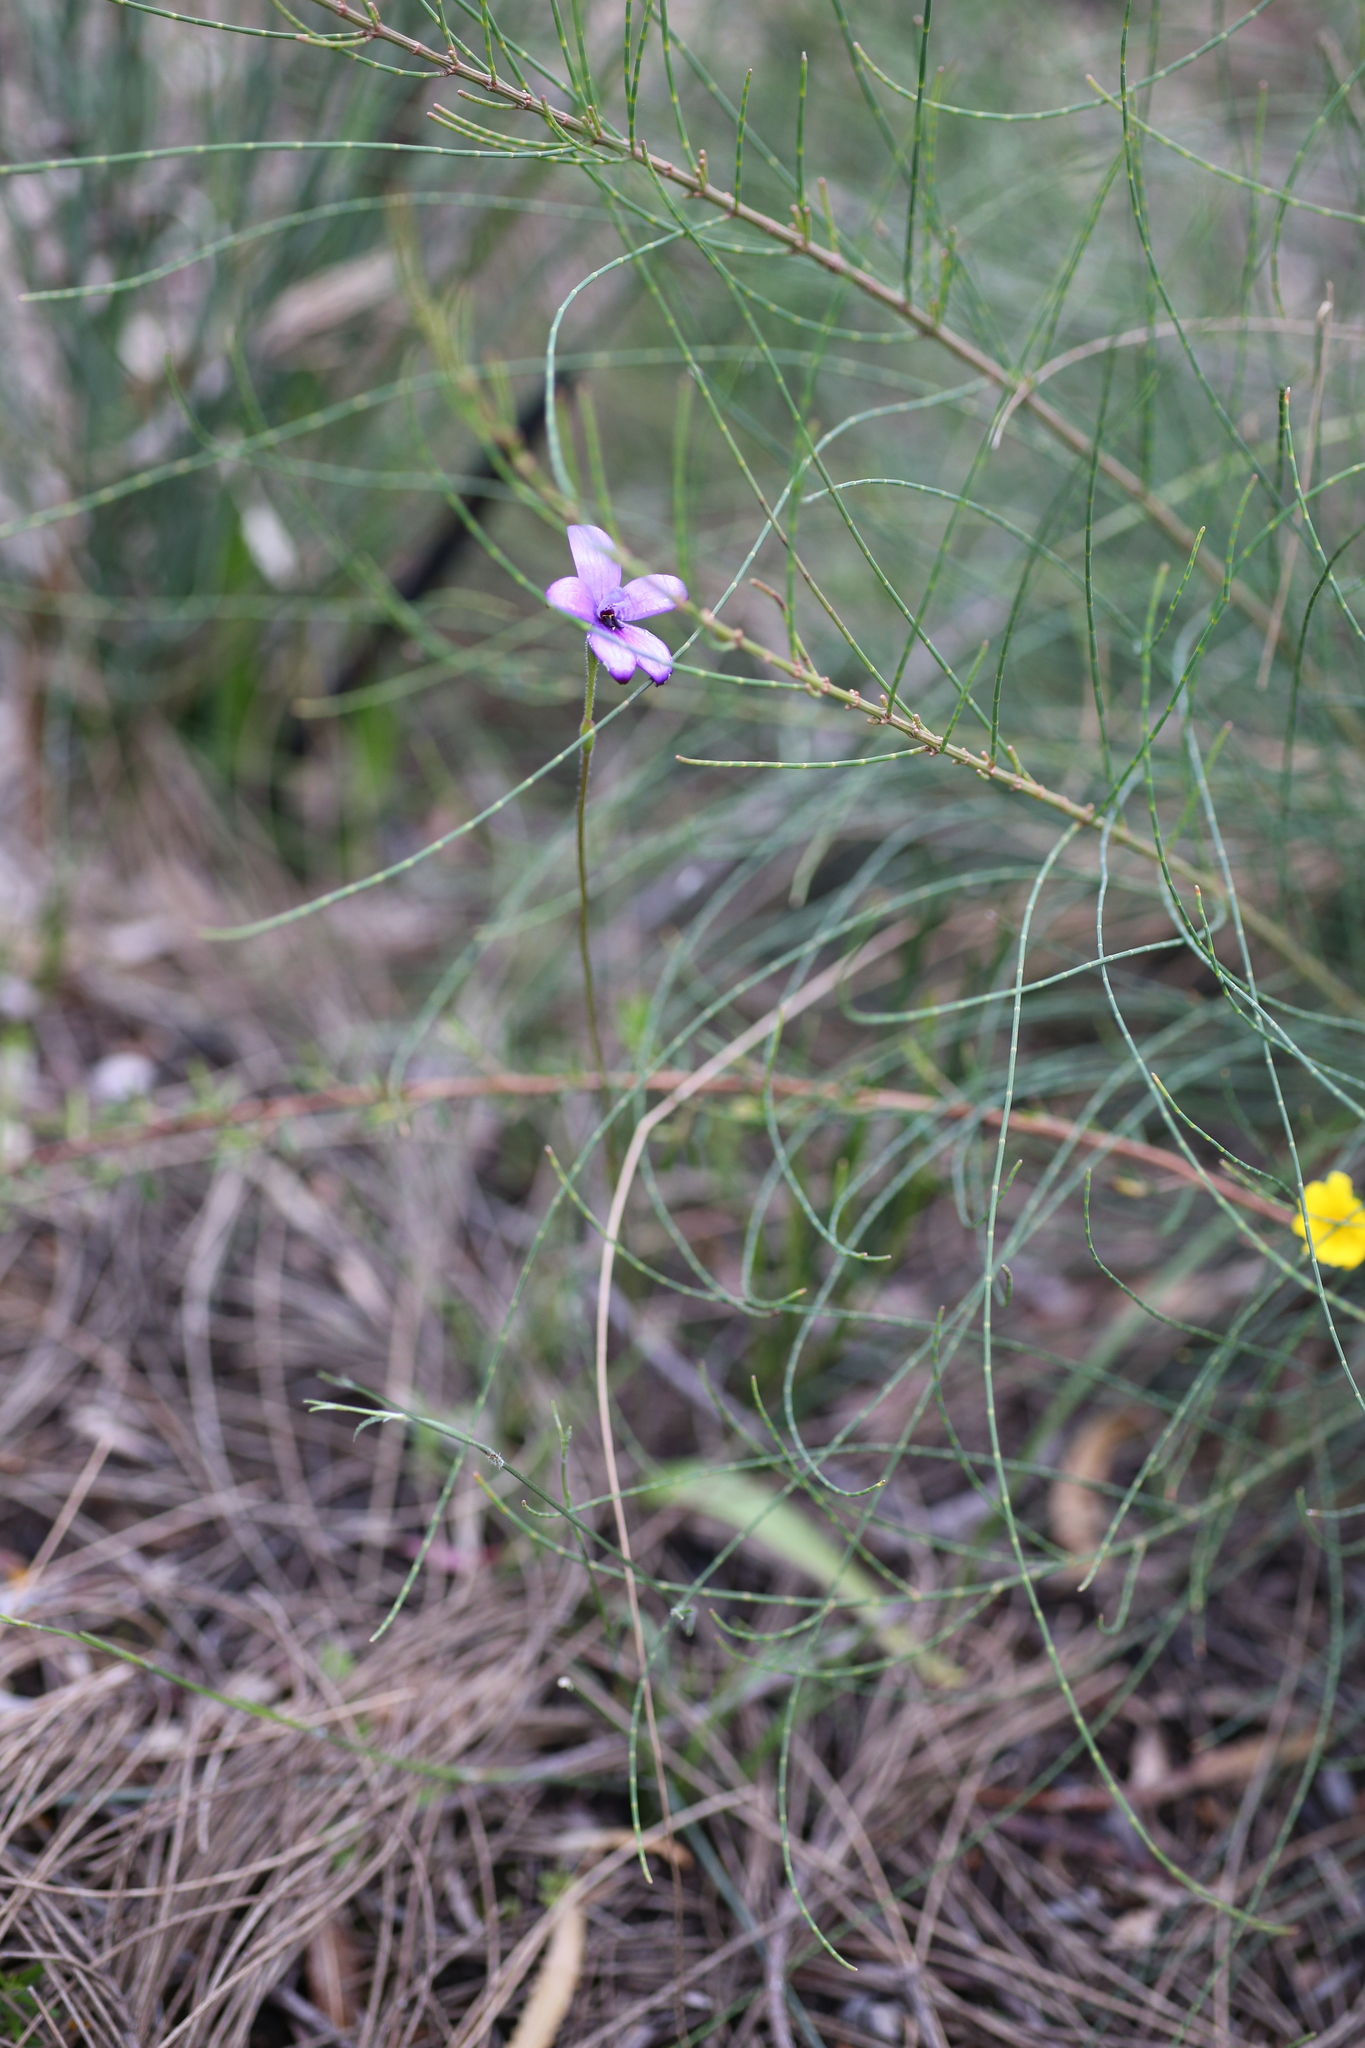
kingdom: Plantae
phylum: Tracheophyta
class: Liliopsida
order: Asparagales
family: Orchidaceae
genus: Caladenia
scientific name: Caladenia brunonis
